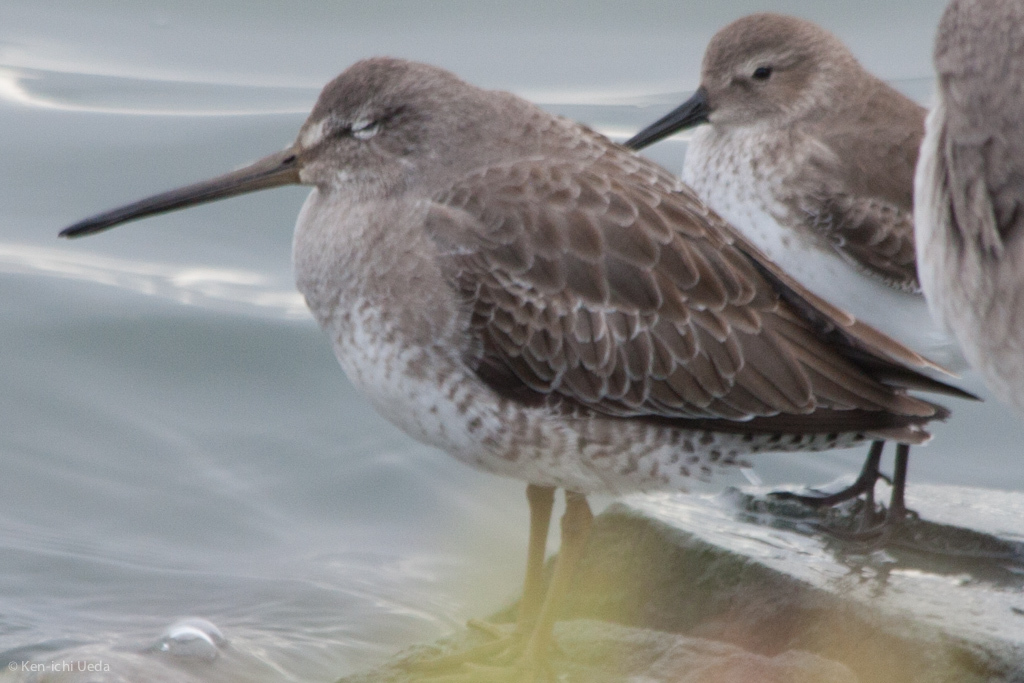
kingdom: Animalia
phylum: Chordata
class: Aves
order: Charadriiformes
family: Scolopacidae
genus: Limnodromus
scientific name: Limnodromus scolopaceus
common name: Long-billed dowitcher
